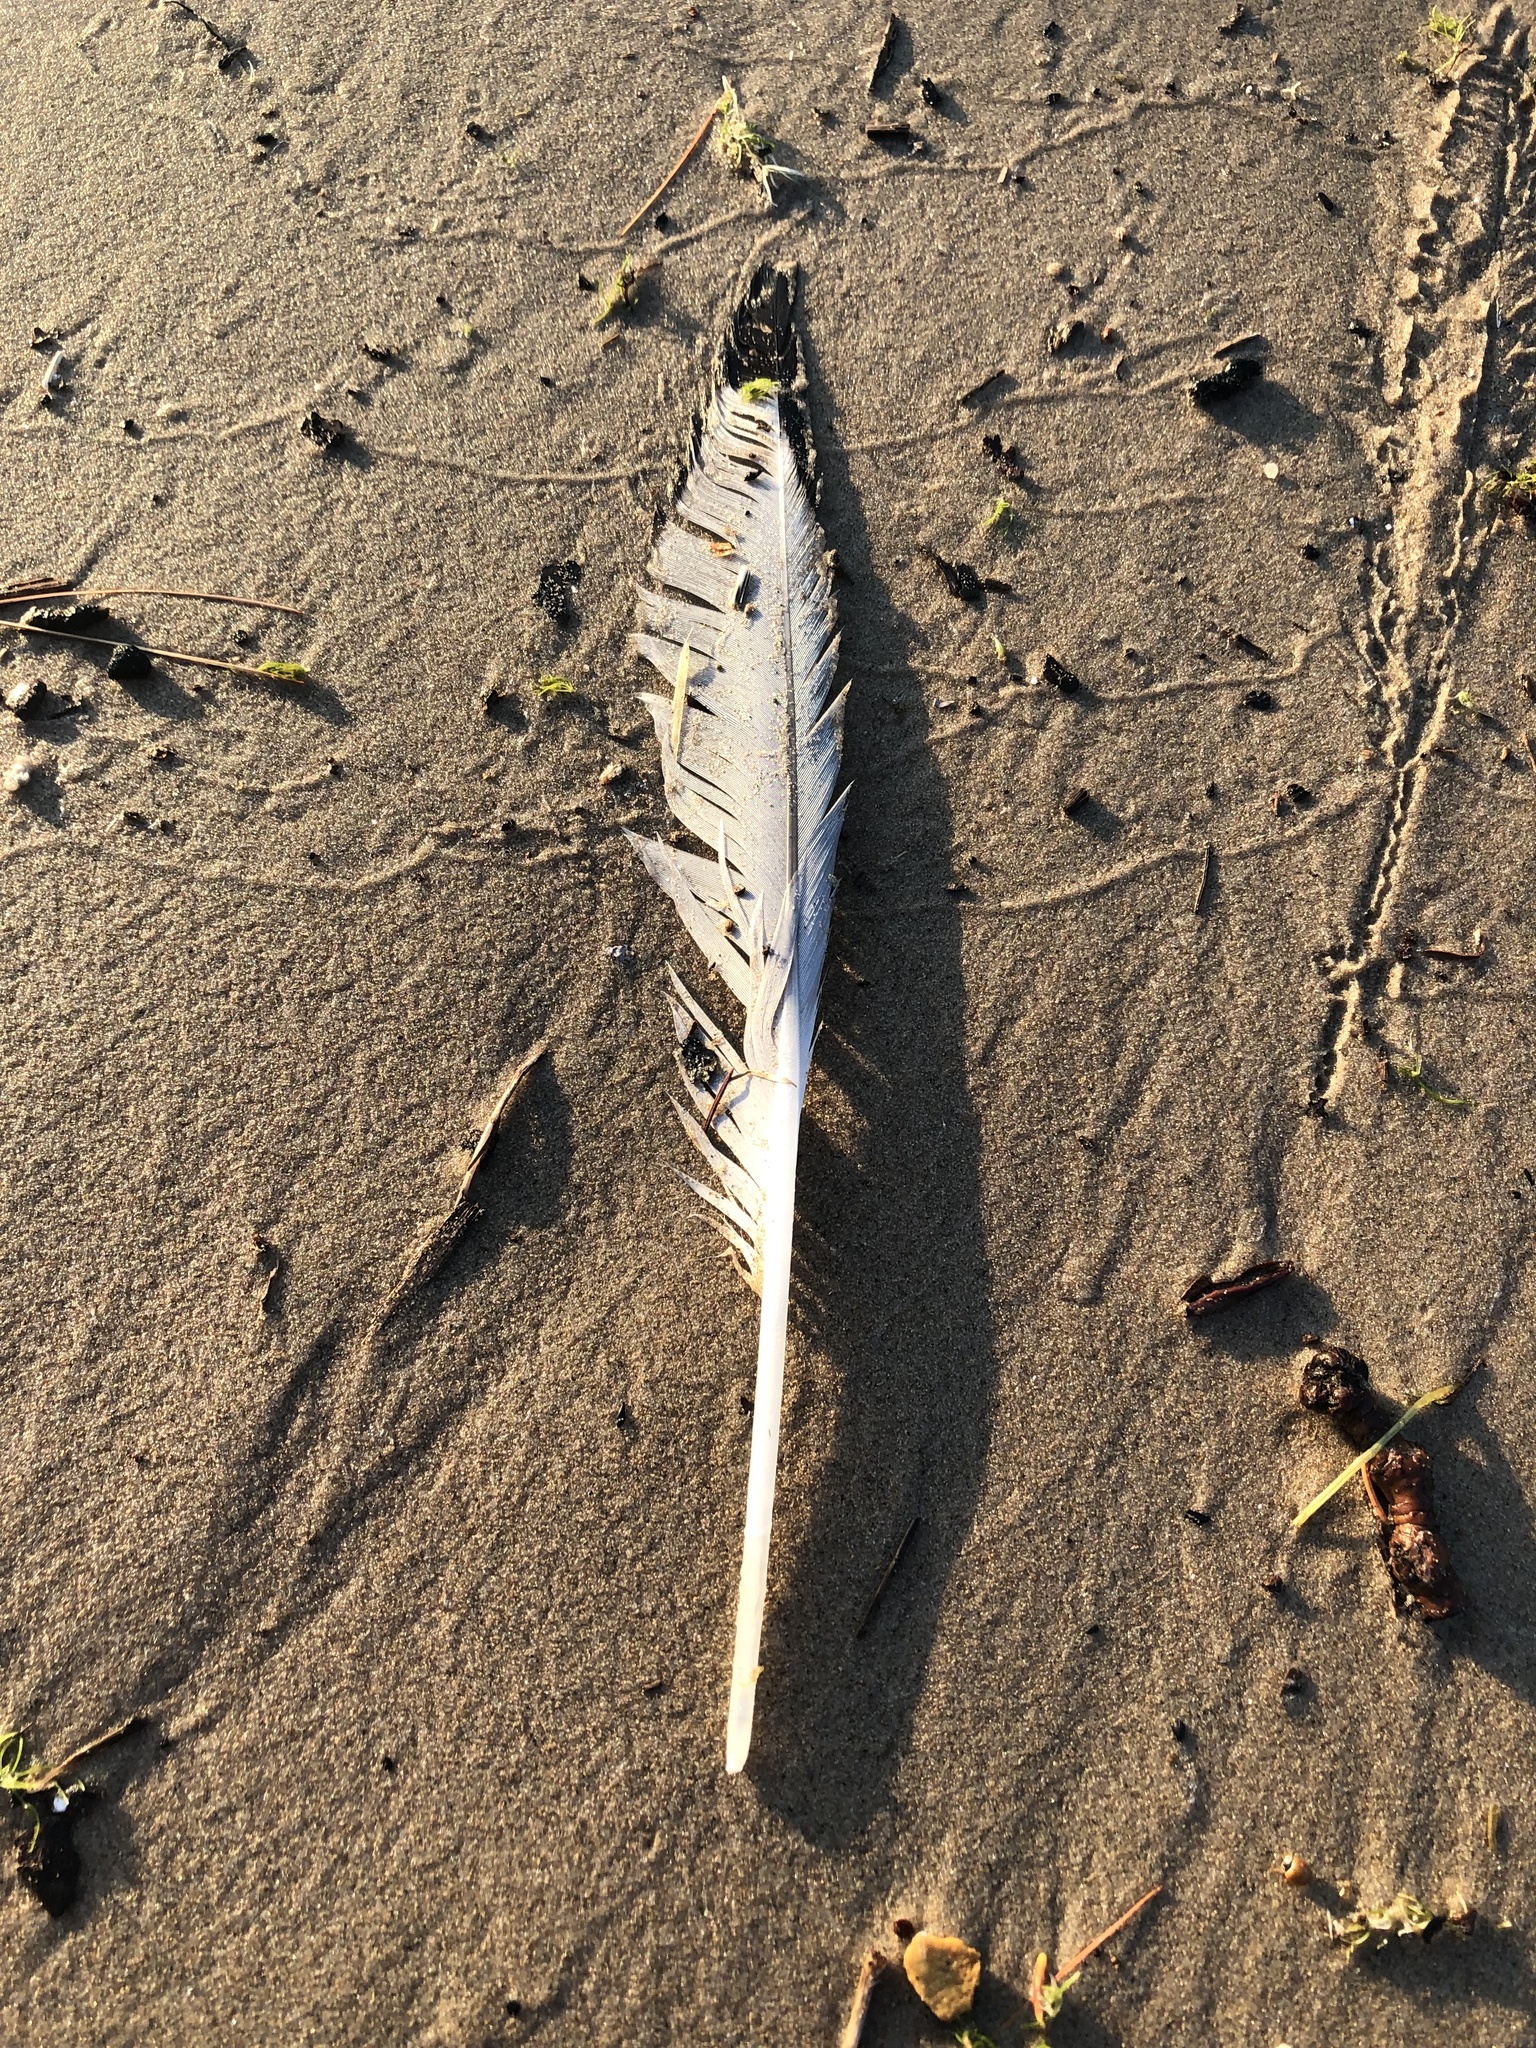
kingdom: Animalia
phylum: Chordata
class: Aves
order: Charadriiformes
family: Laridae
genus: Larus
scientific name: Larus delawarensis
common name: Ring-billed gull
